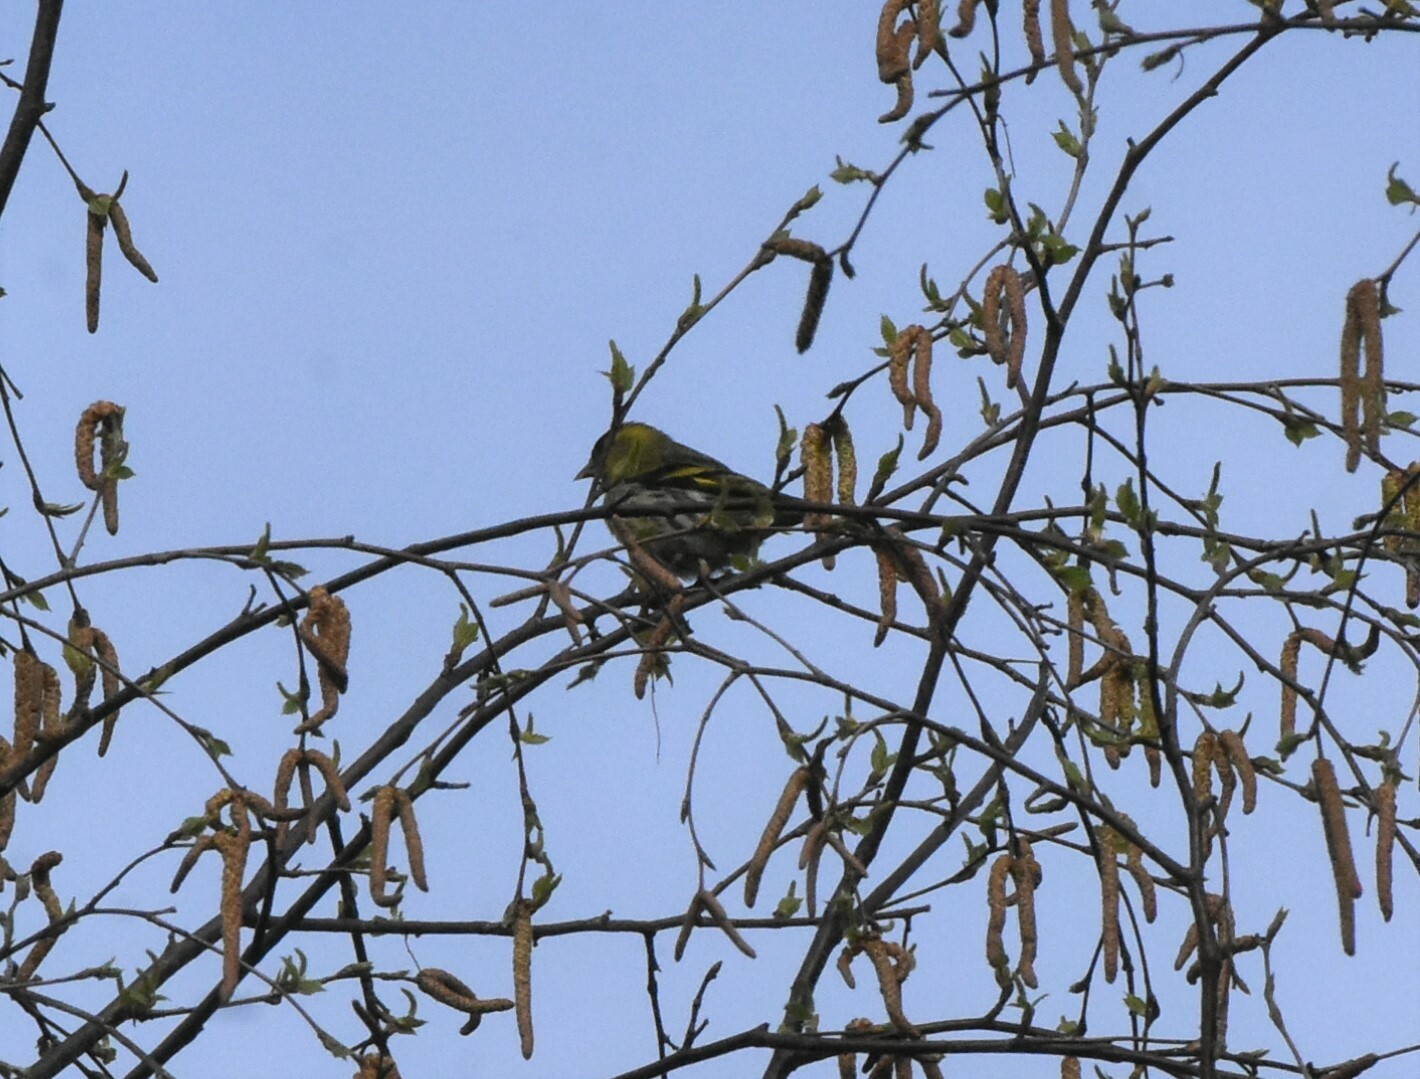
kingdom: Animalia
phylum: Chordata
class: Aves
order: Passeriformes
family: Fringillidae
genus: Spinus
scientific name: Spinus spinus
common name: Eurasian siskin
